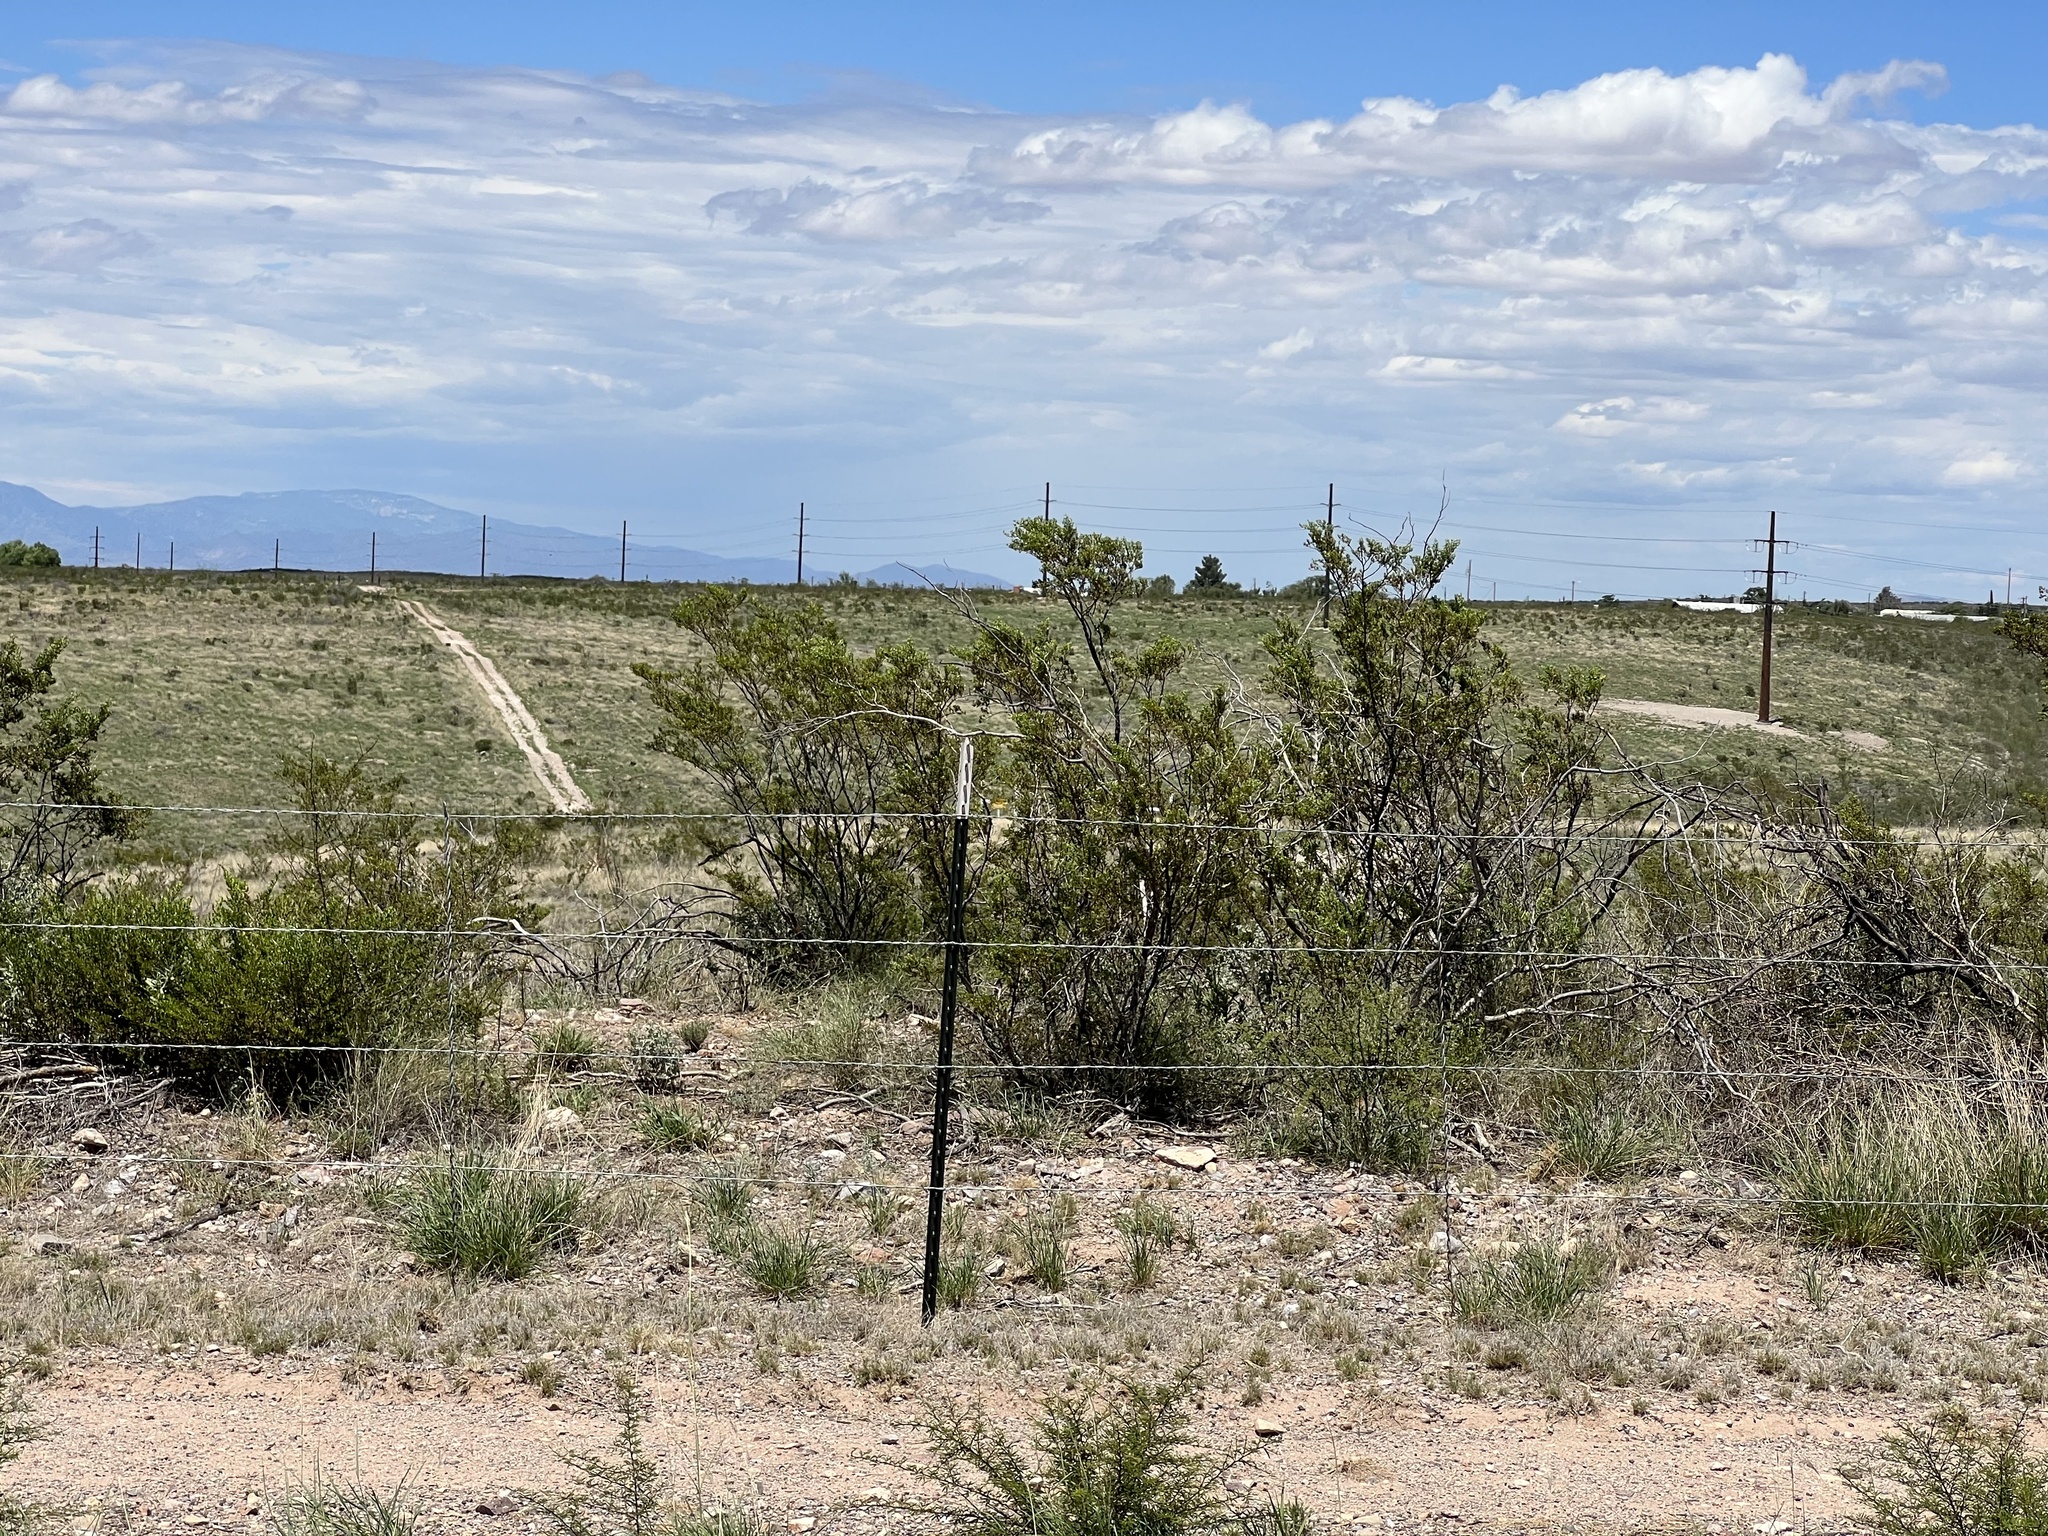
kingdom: Plantae
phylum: Tracheophyta
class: Magnoliopsida
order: Zygophyllales
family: Zygophyllaceae
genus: Larrea
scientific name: Larrea tridentata
